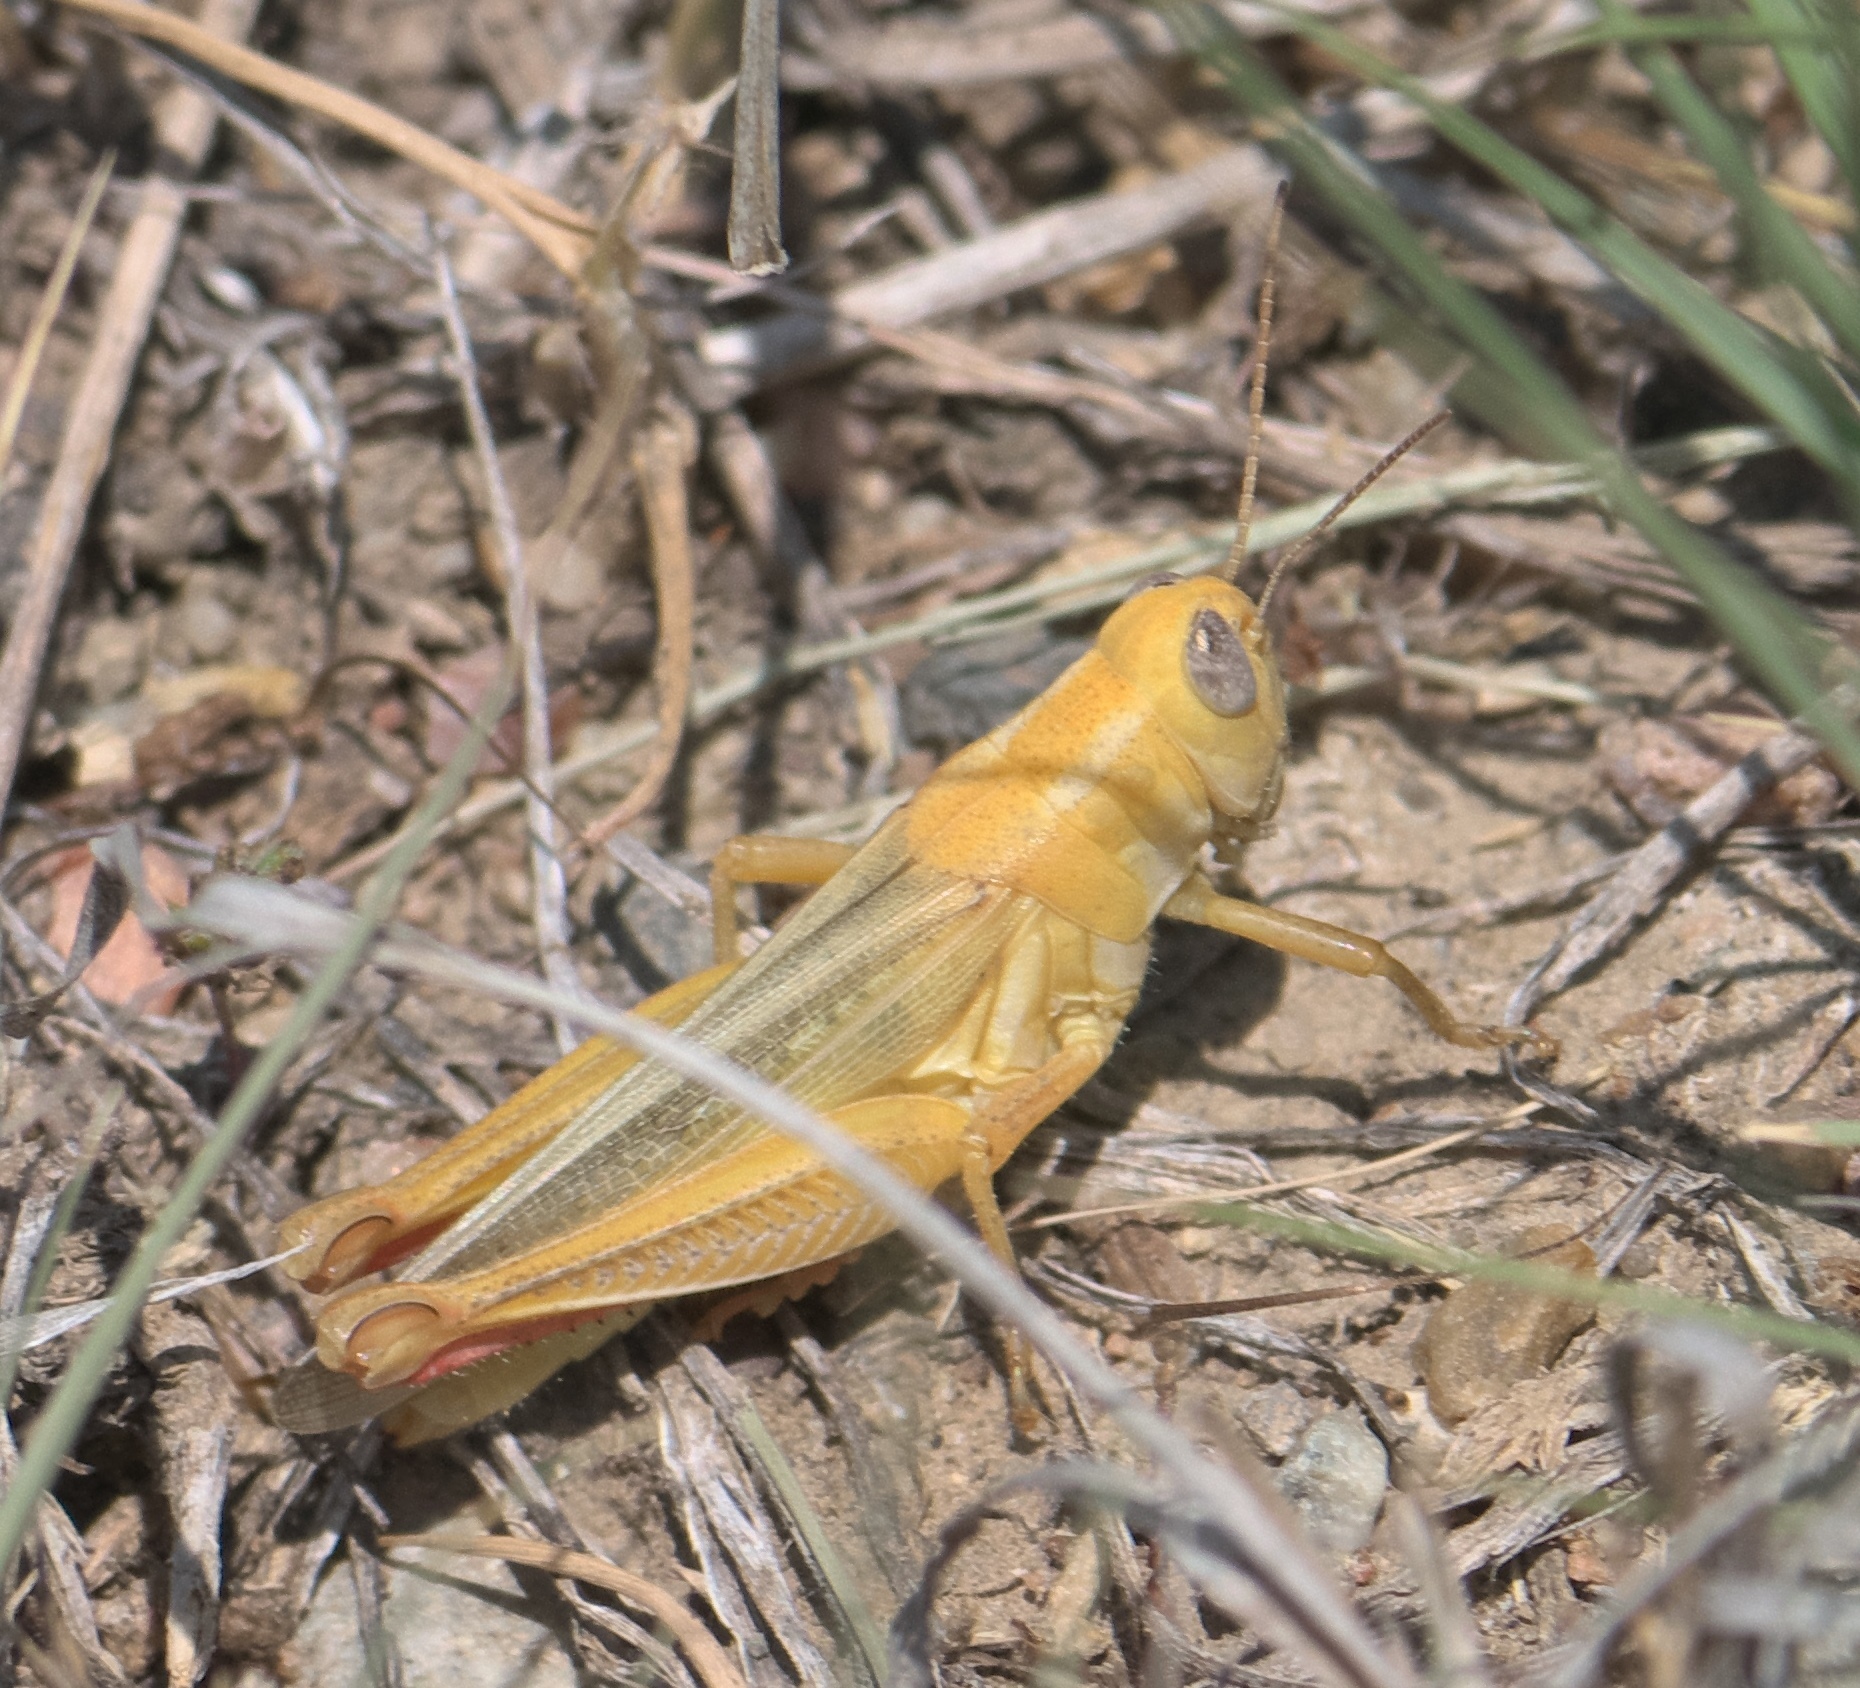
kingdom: Animalia
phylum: Arthropoda
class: Insecta
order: Orthoptera
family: Acrididae
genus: Melanoplus
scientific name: Melanoplus foedus
